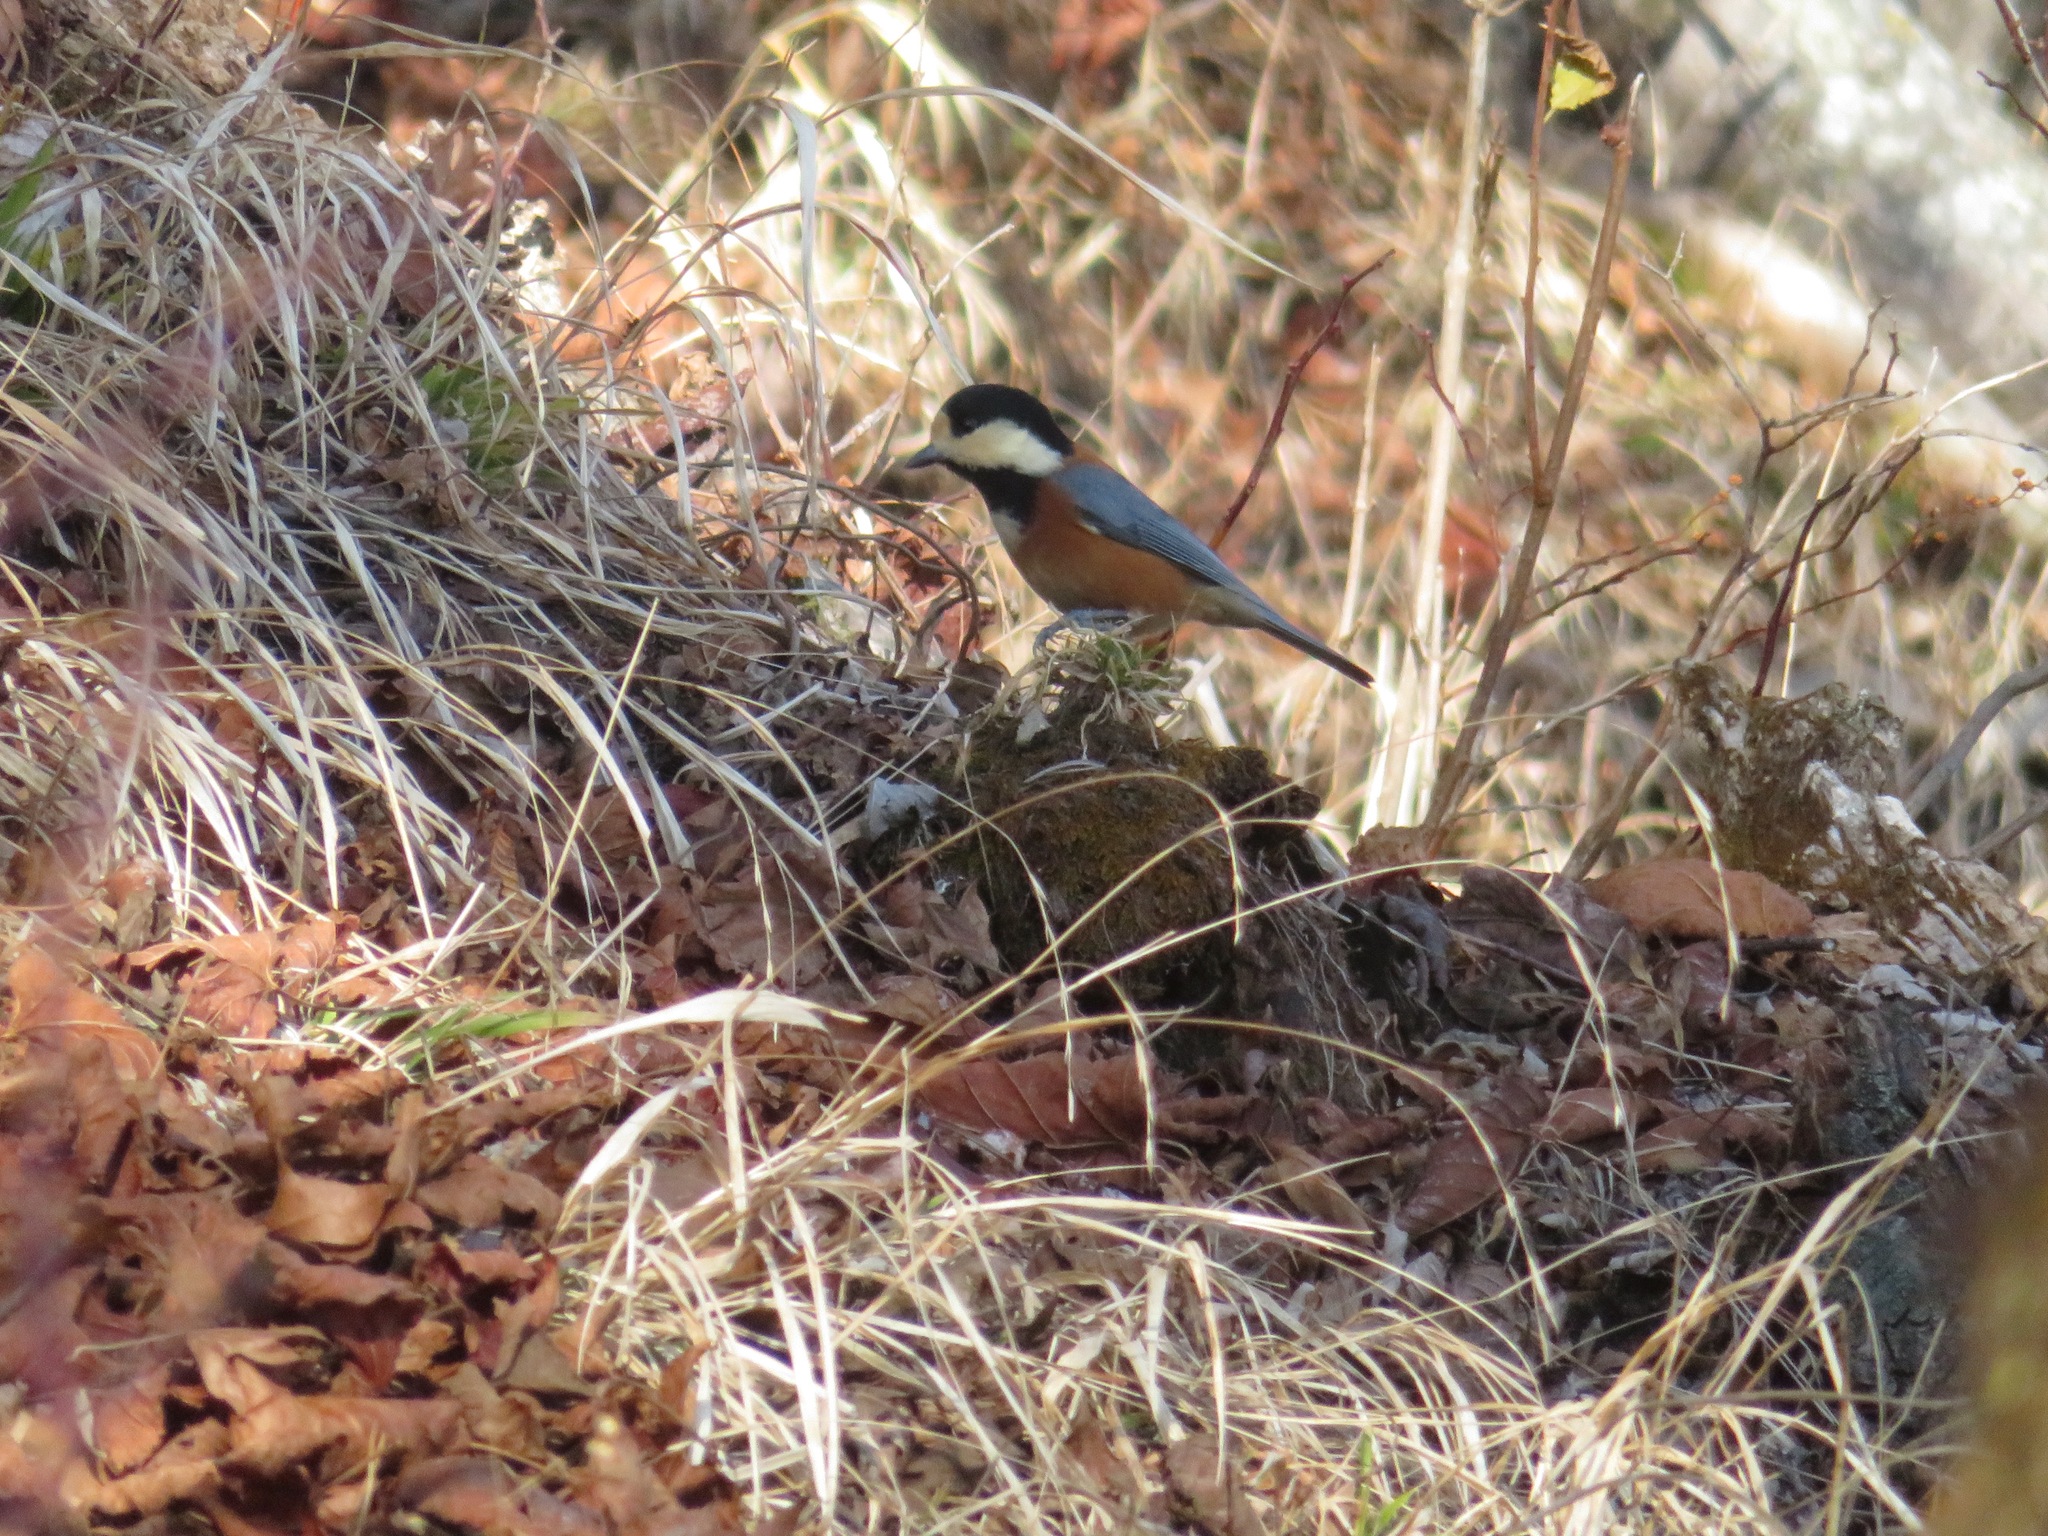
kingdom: Animalia
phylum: Chordata
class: Aves
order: Passeriformes
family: Paridae
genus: Poecile
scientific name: Poecile varius
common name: Varied tit
